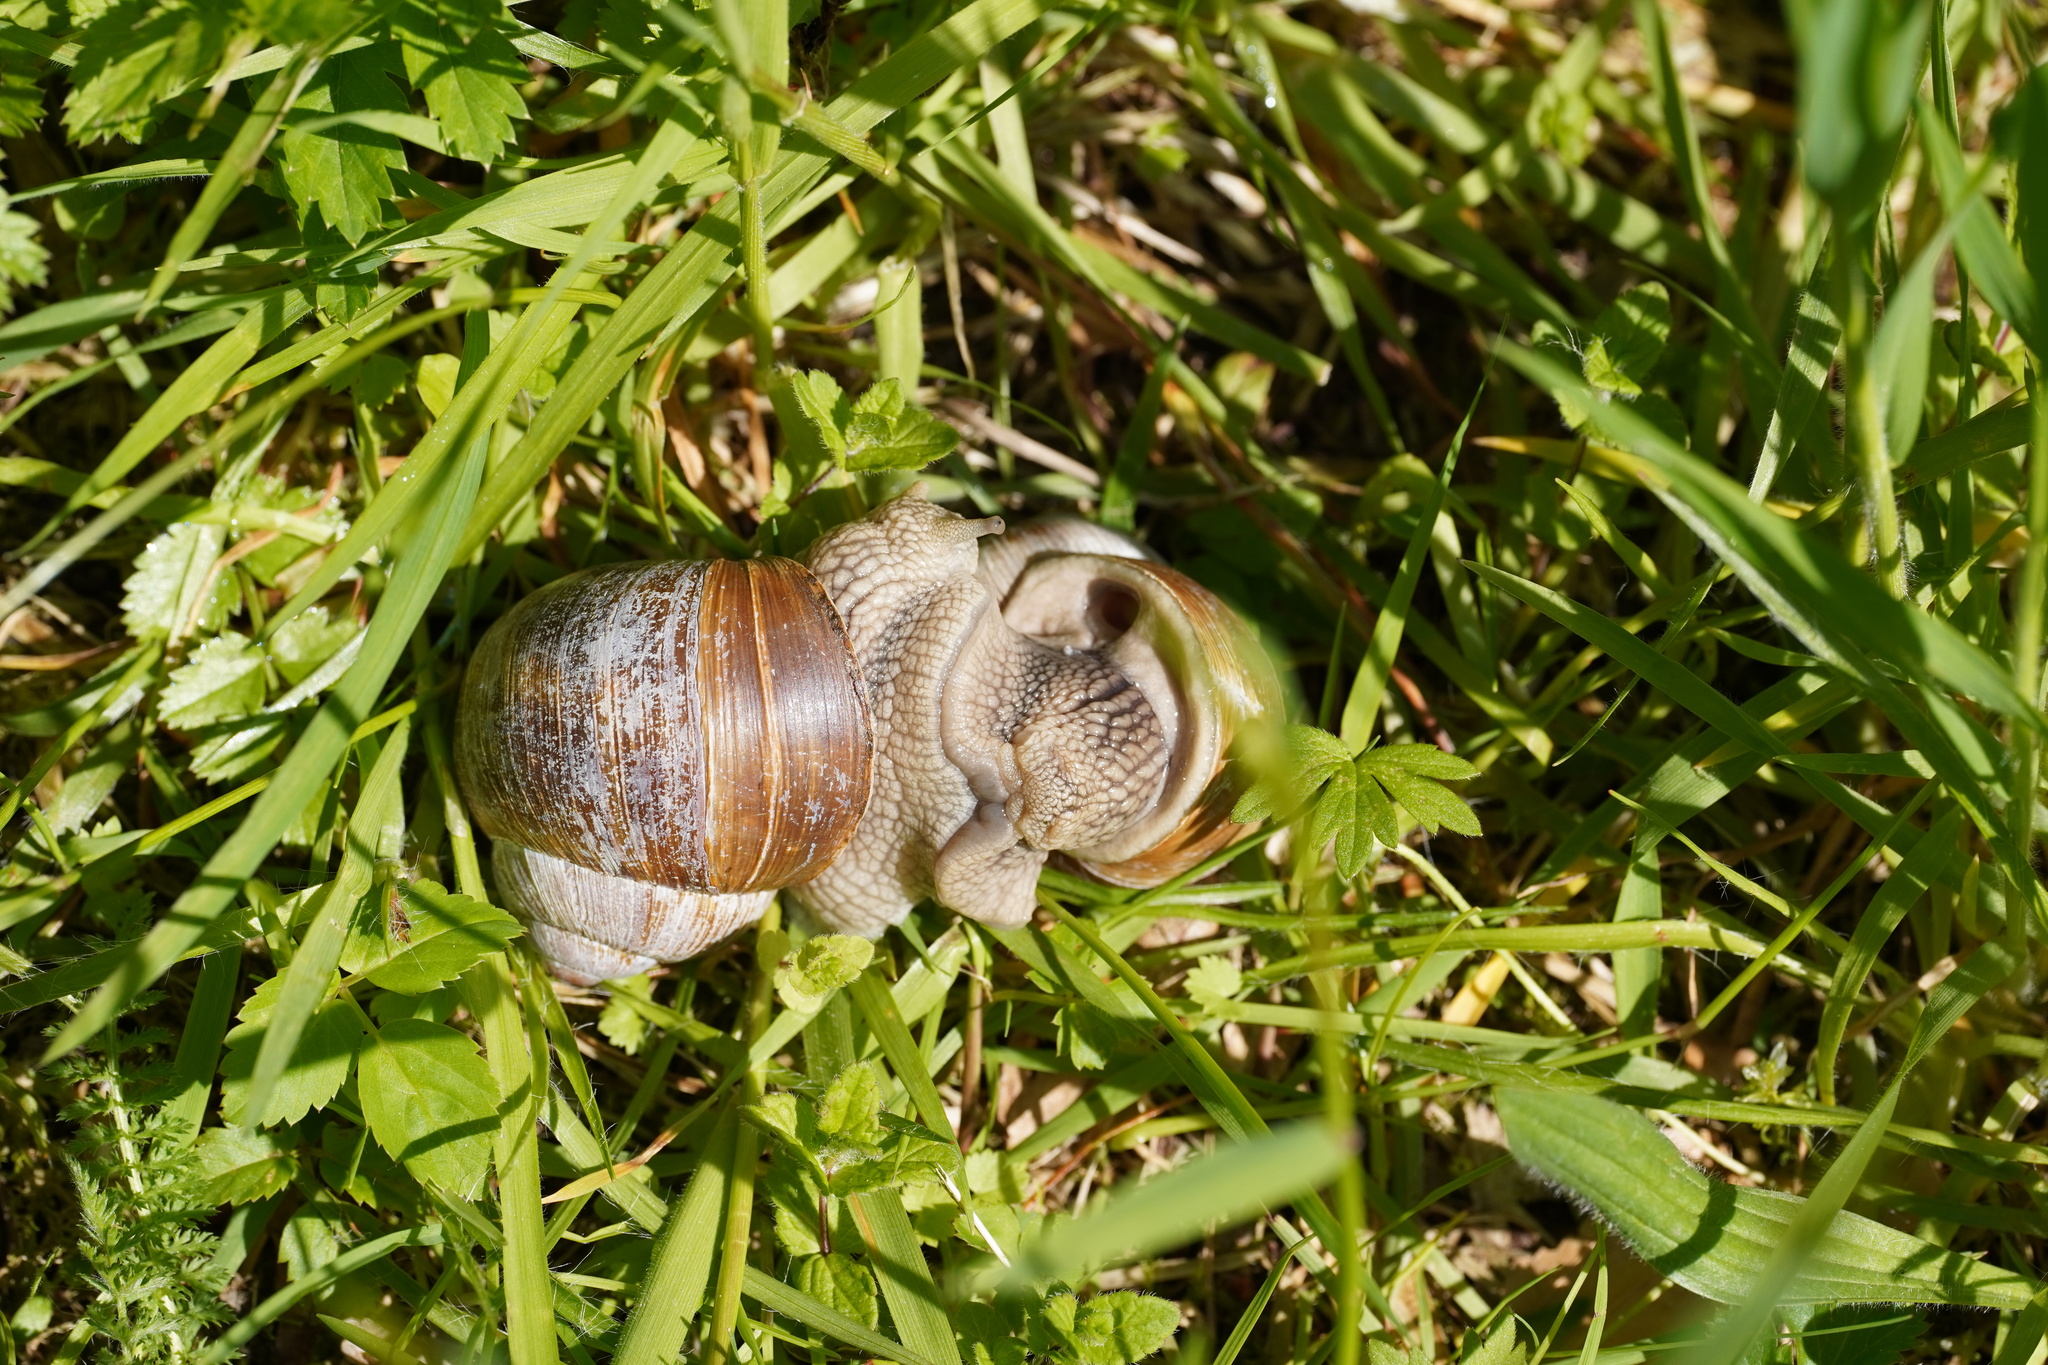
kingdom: Animalia
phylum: Mollusca
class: Gastropoda
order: Stylommatophora
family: Helicidae
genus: Helix
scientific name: Helix pomatia
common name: Roman snail
